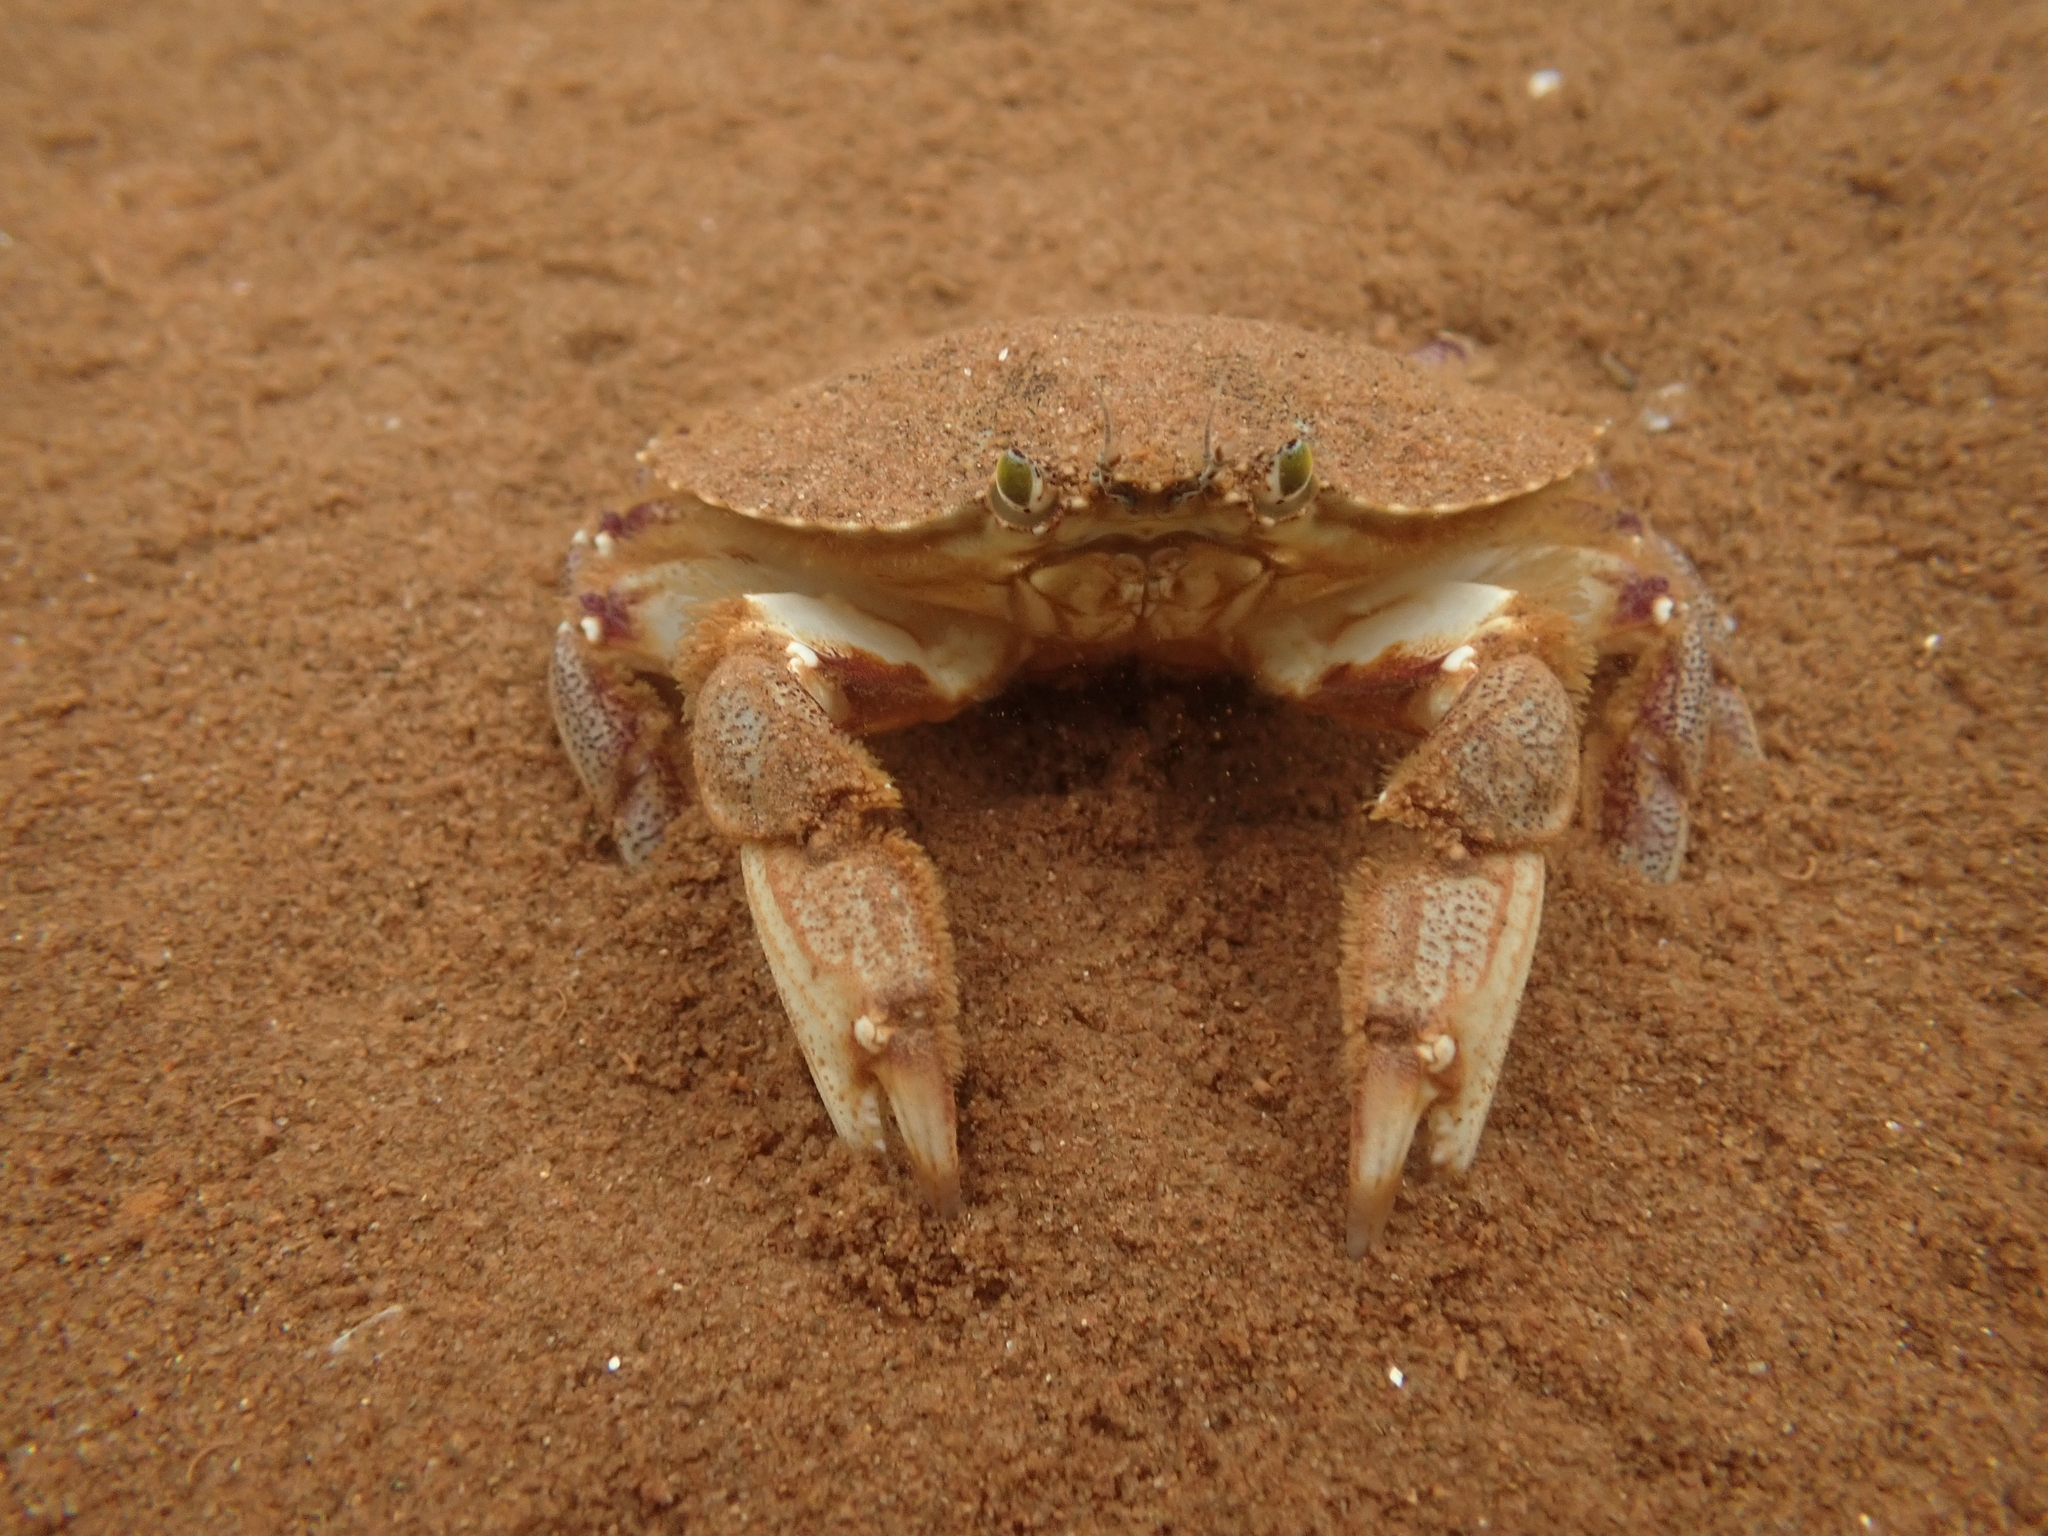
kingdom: Animalia
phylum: Arthropoda
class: Malacostraca
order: Decapoda
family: Cancridae
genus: Cancer
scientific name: Cancer irroratus
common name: Atlantic rock crab
